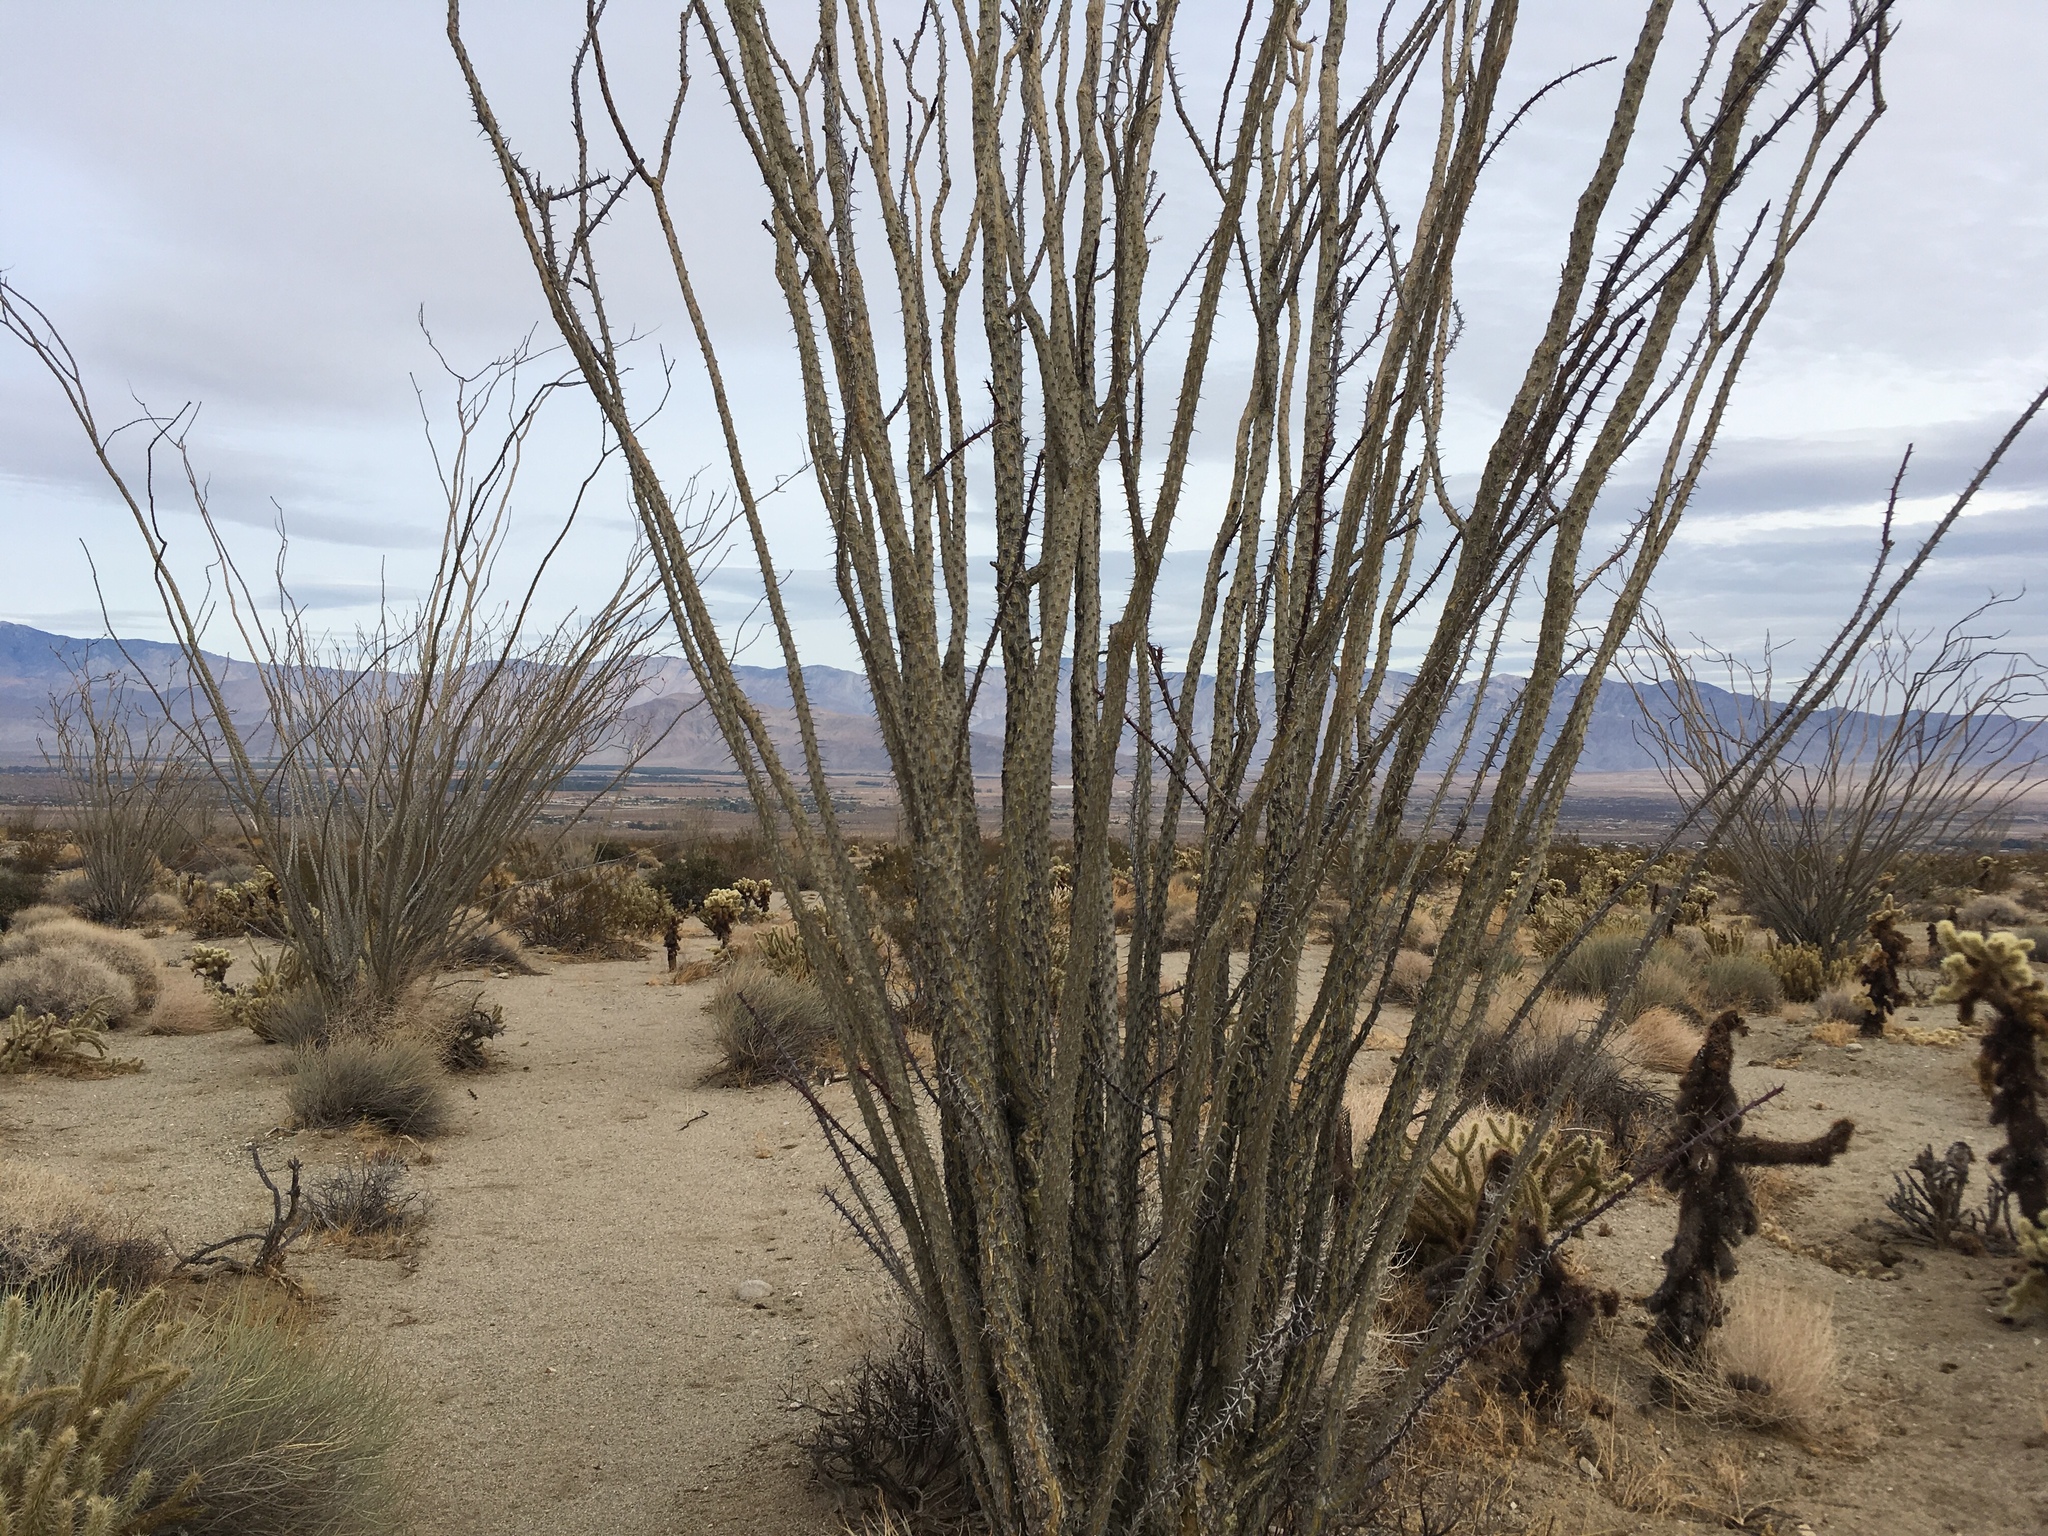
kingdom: Plantae
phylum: Tracheophyta
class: Magnoliopsida
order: Ericales
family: Fouquieriaceae
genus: Fouquieria
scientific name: Fouquieria splendens
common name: Vine-cactus
